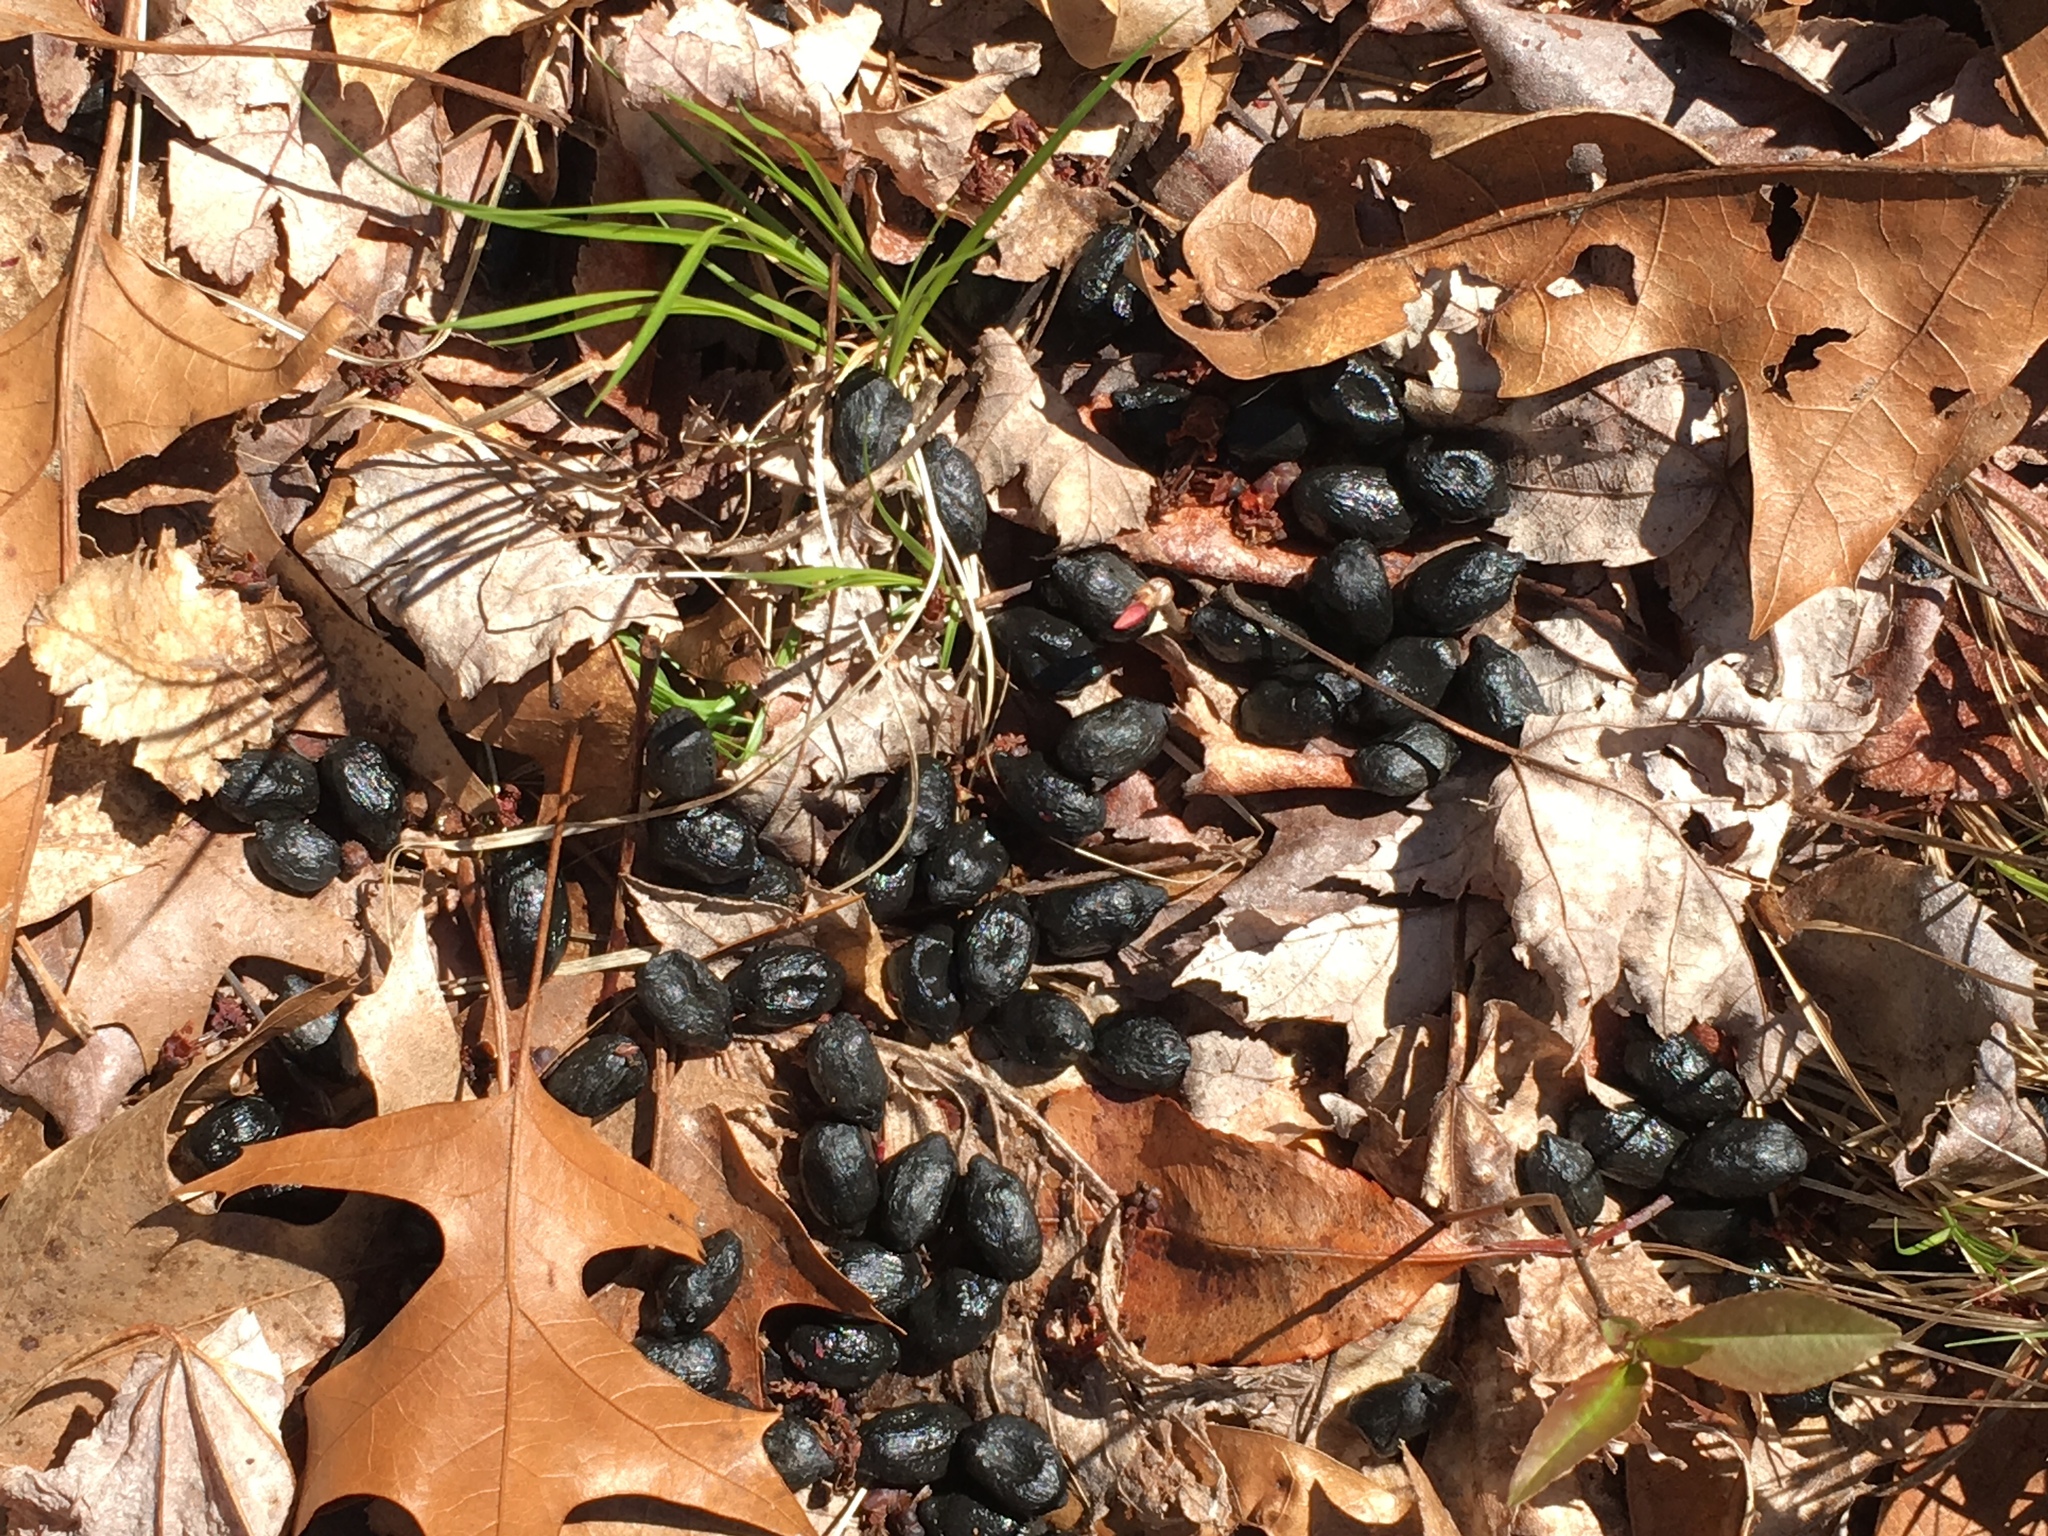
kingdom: Animalia
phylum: Chordata
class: Mammalia
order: Artiodactyla
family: Cervidae
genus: Odocoileus
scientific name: Odocoileus virginianus
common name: White-tailed deer
